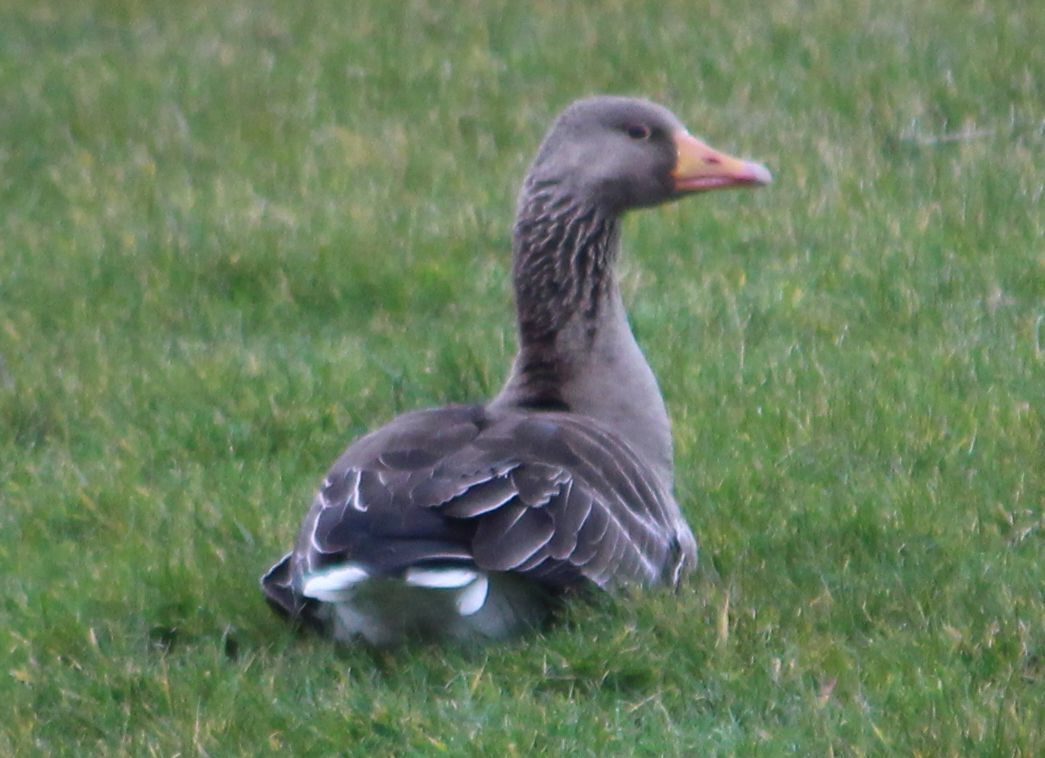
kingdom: Animalia
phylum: Chordata
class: Aves
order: Anseriformes
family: Anatidae
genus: Anser
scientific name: Anser anser
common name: Greylag goose
